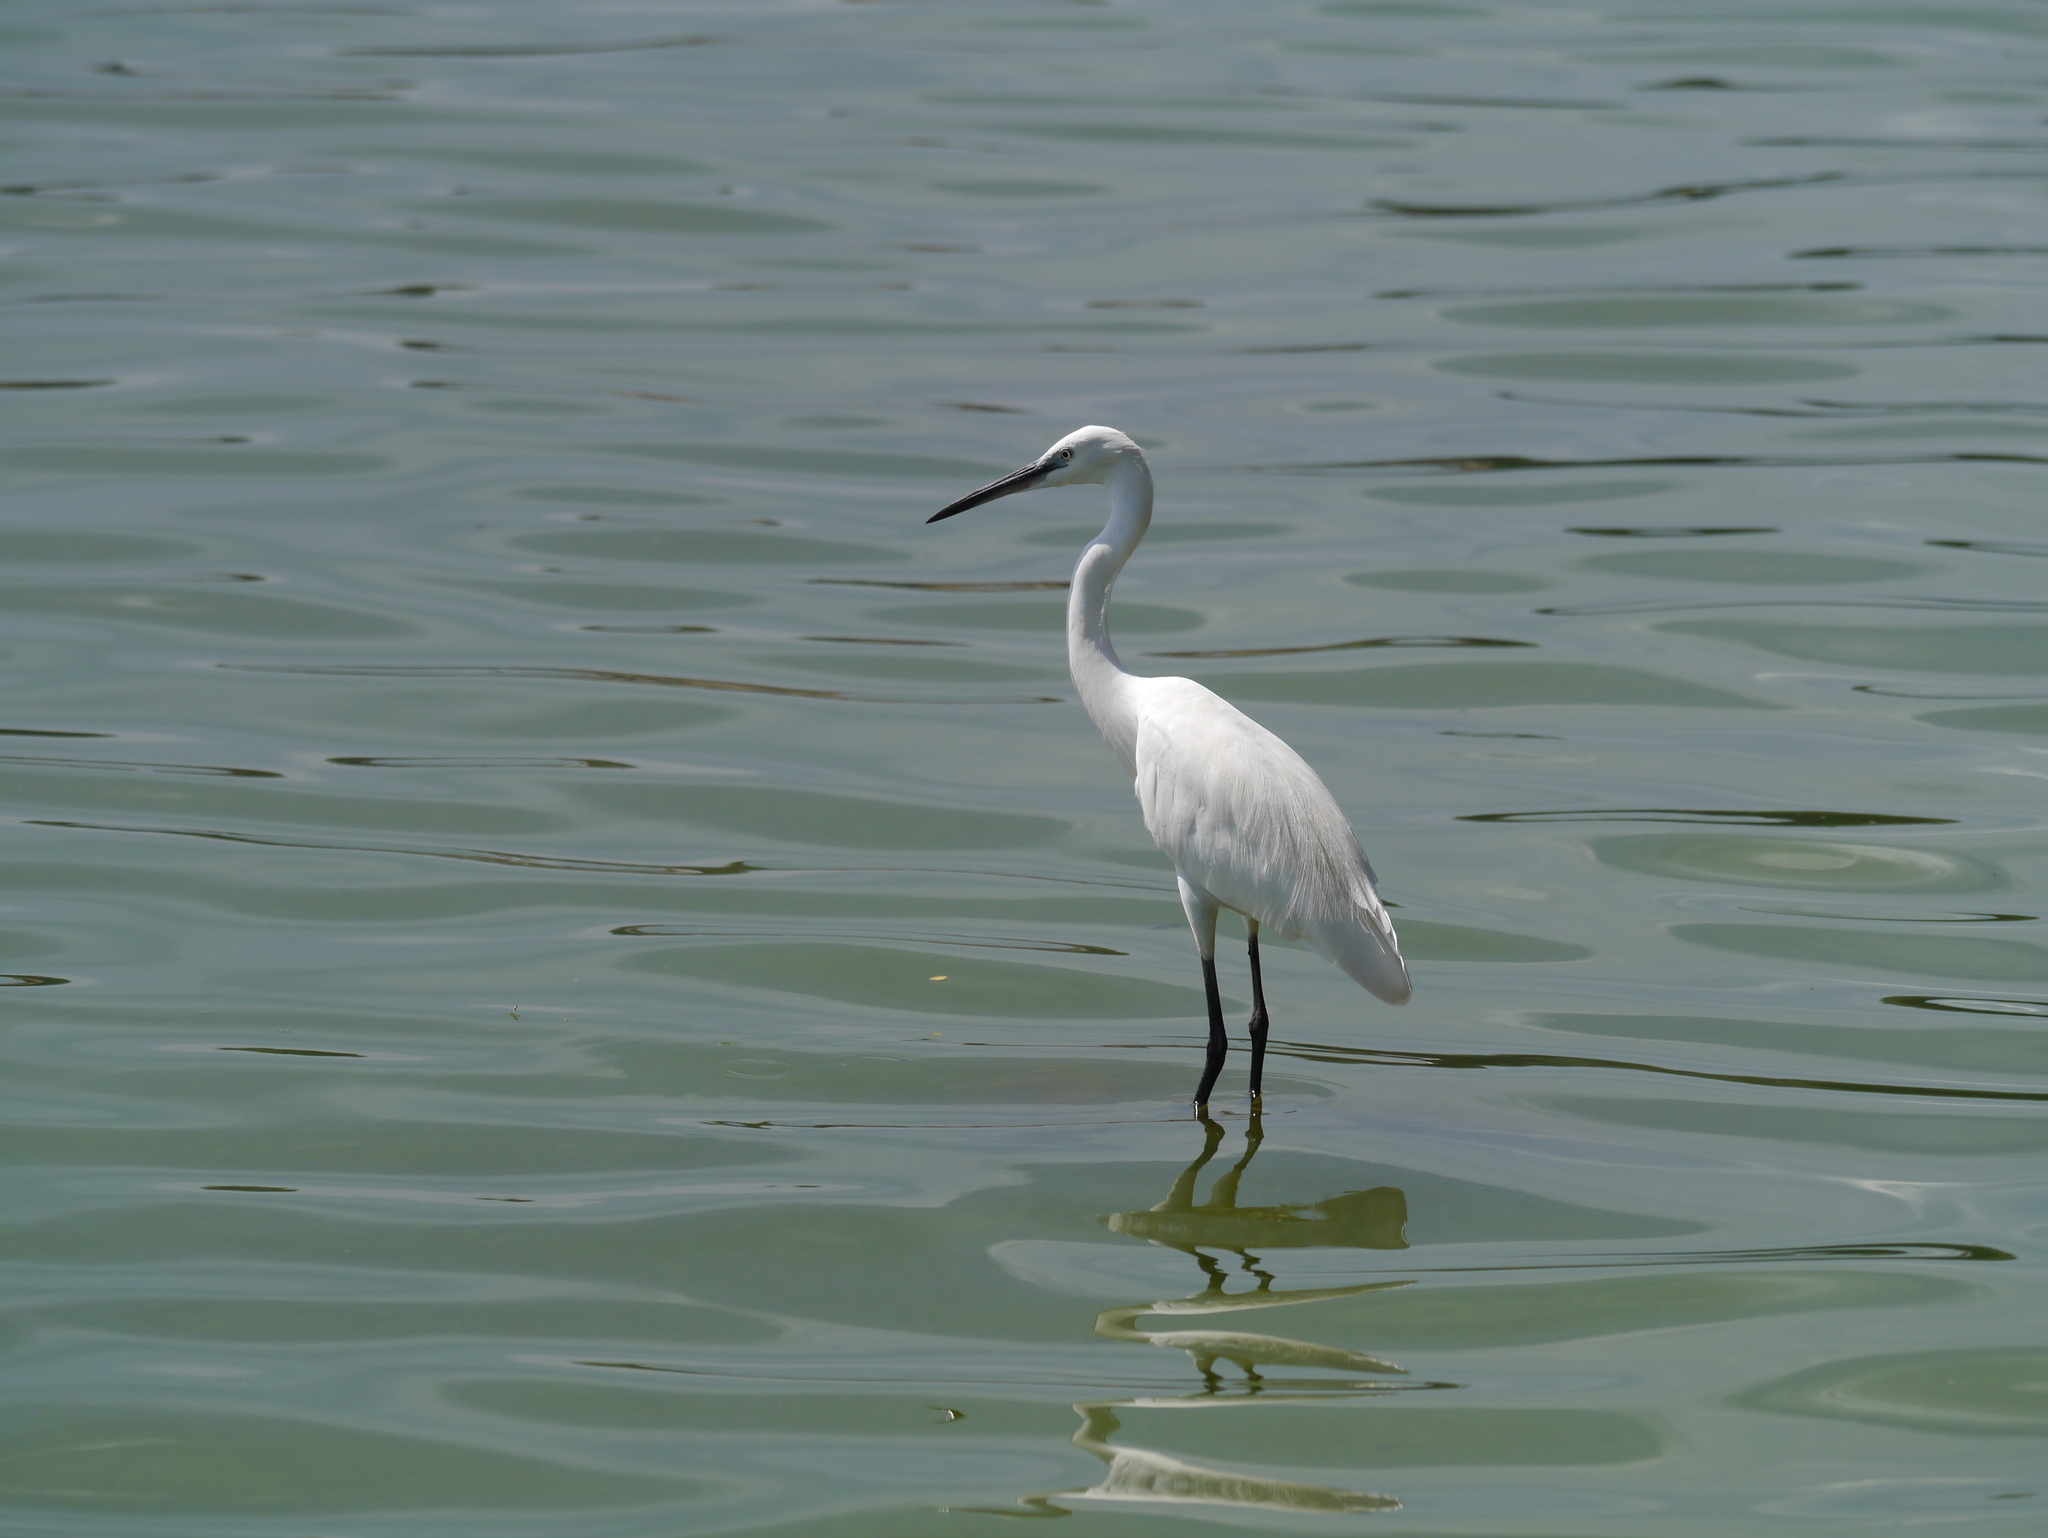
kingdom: Animalia
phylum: Chordata
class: Aves
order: Pelecaniformes
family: Ardeidae
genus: Egretta
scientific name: Egretta garzetta
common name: Little egret
